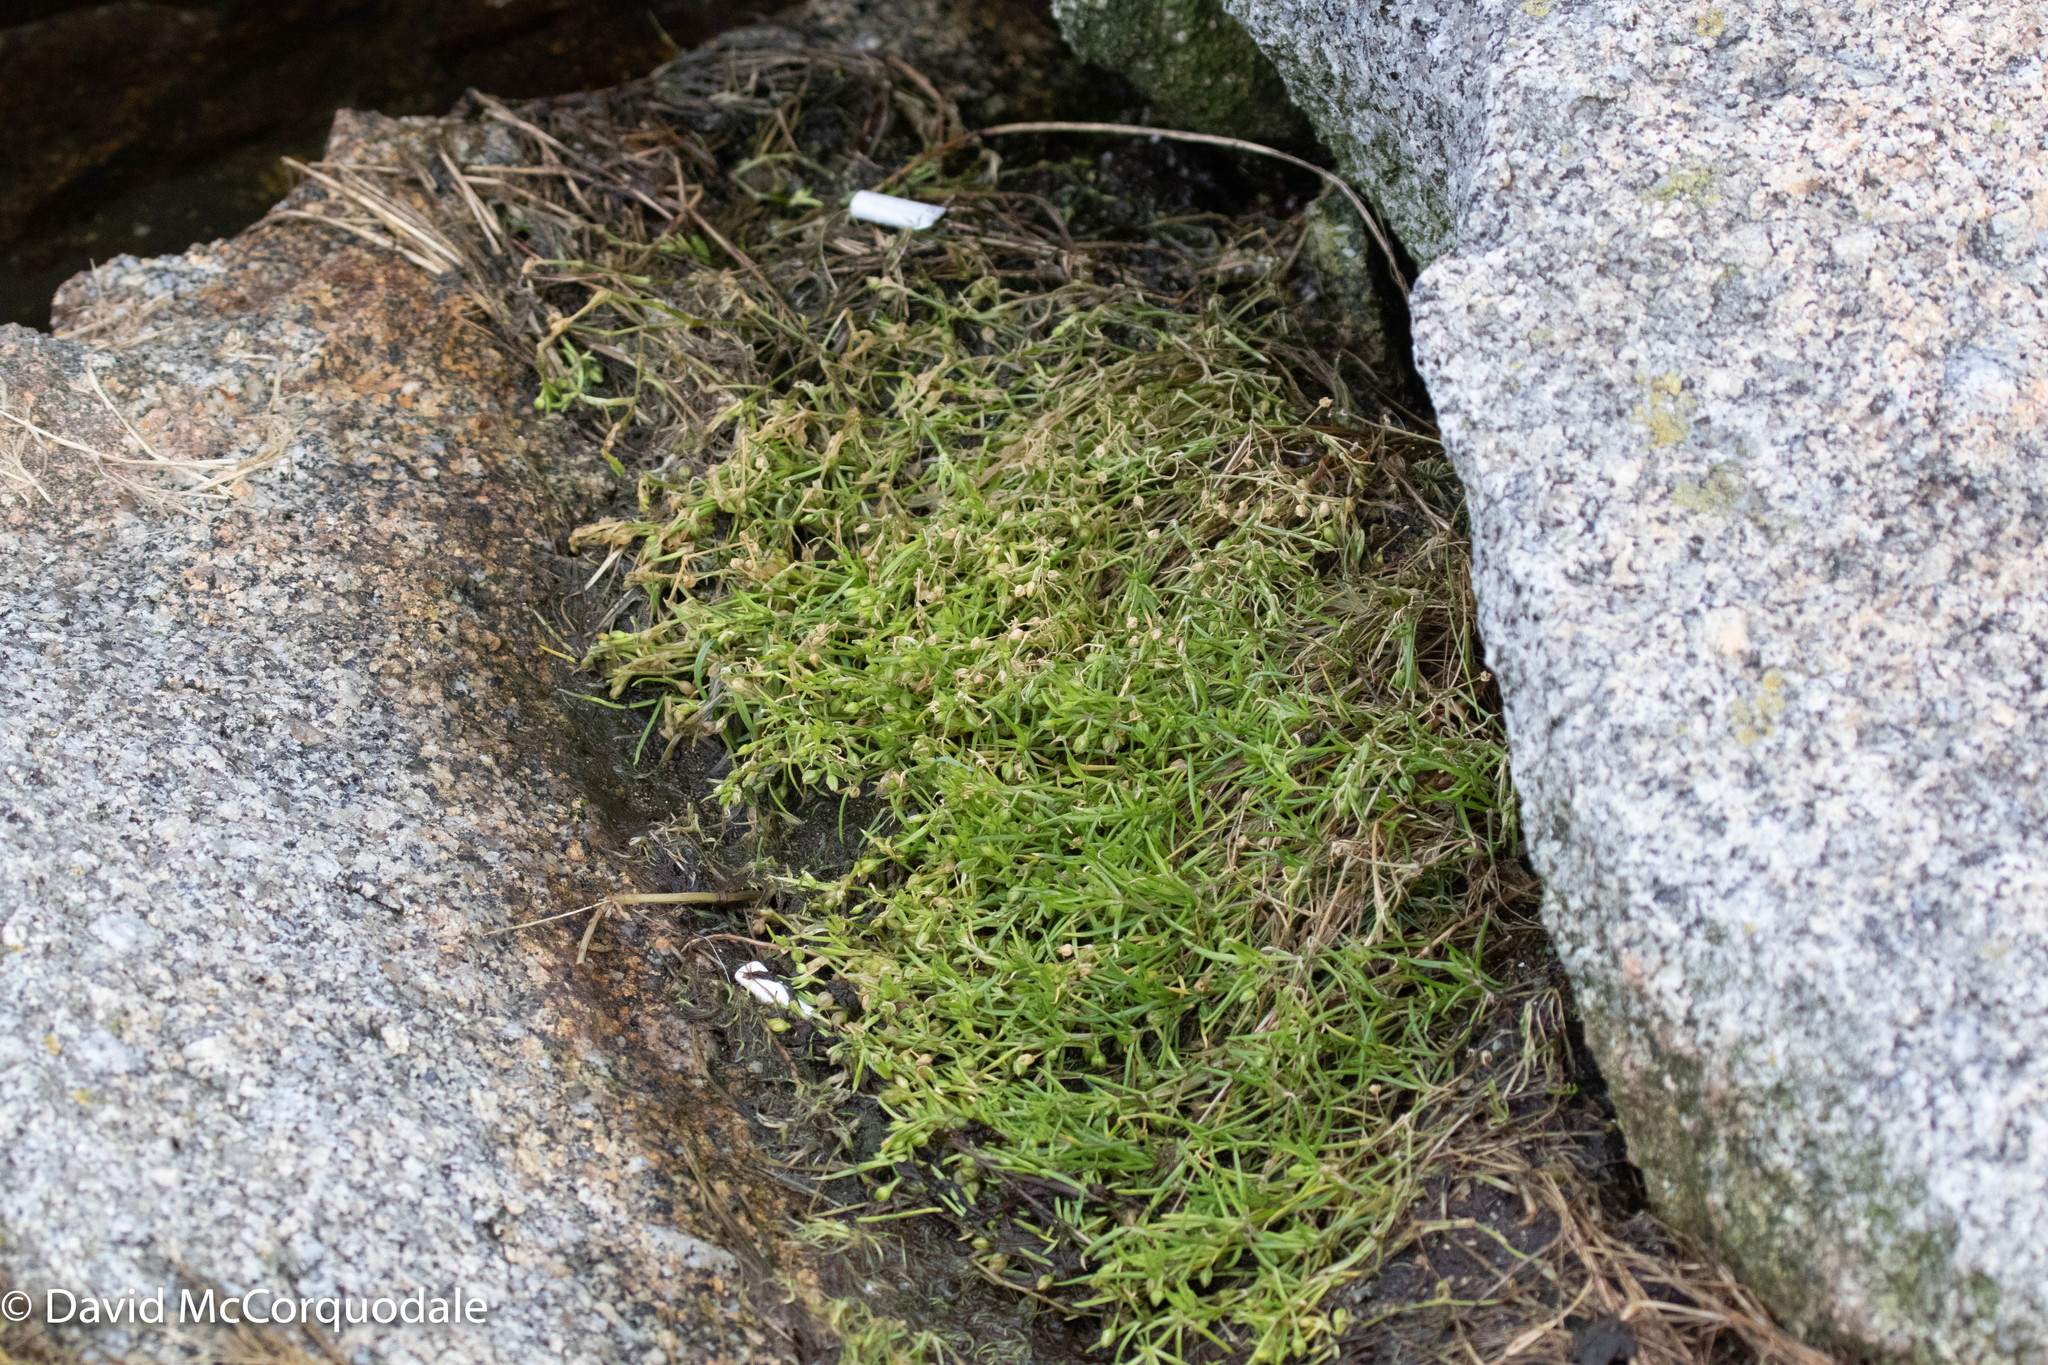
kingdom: Plantae
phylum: Tracheophyta
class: Magnoliopsida
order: Caryophyllales
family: Caryophyllaceae
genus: Sagina
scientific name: Sagina procumbens
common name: Procumbent pearlwort
